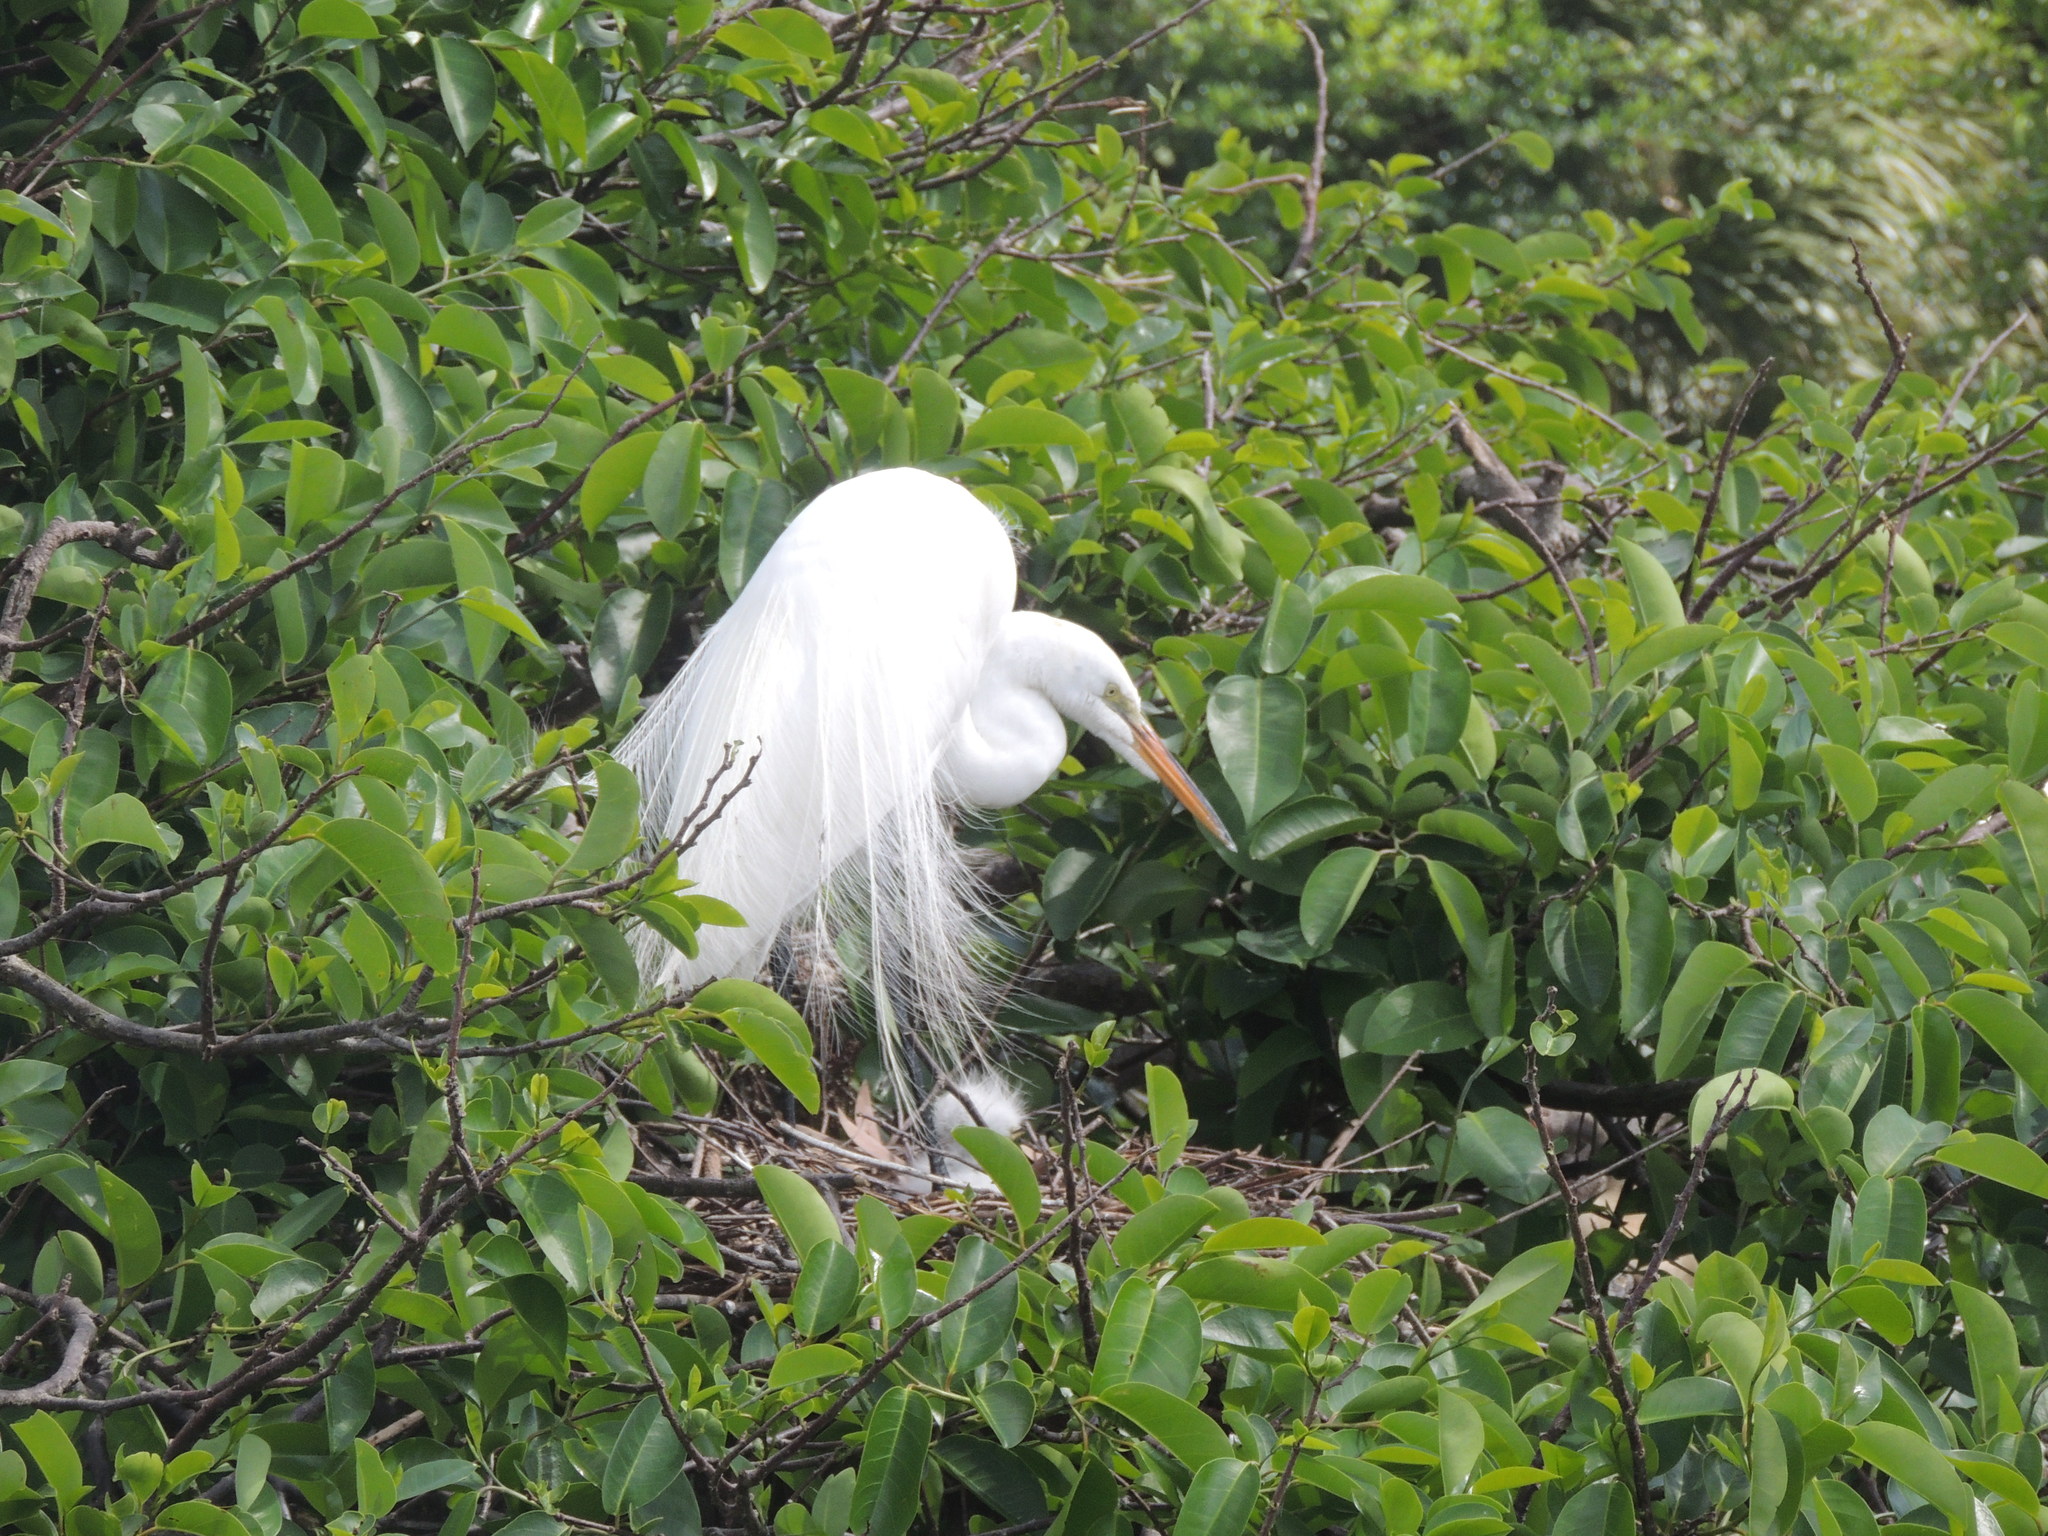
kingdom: Animalia
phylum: Chordata
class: Aves
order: Pelecaniformes
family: Ardeidae
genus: Ardea
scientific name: Ardea alba
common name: Great egret
